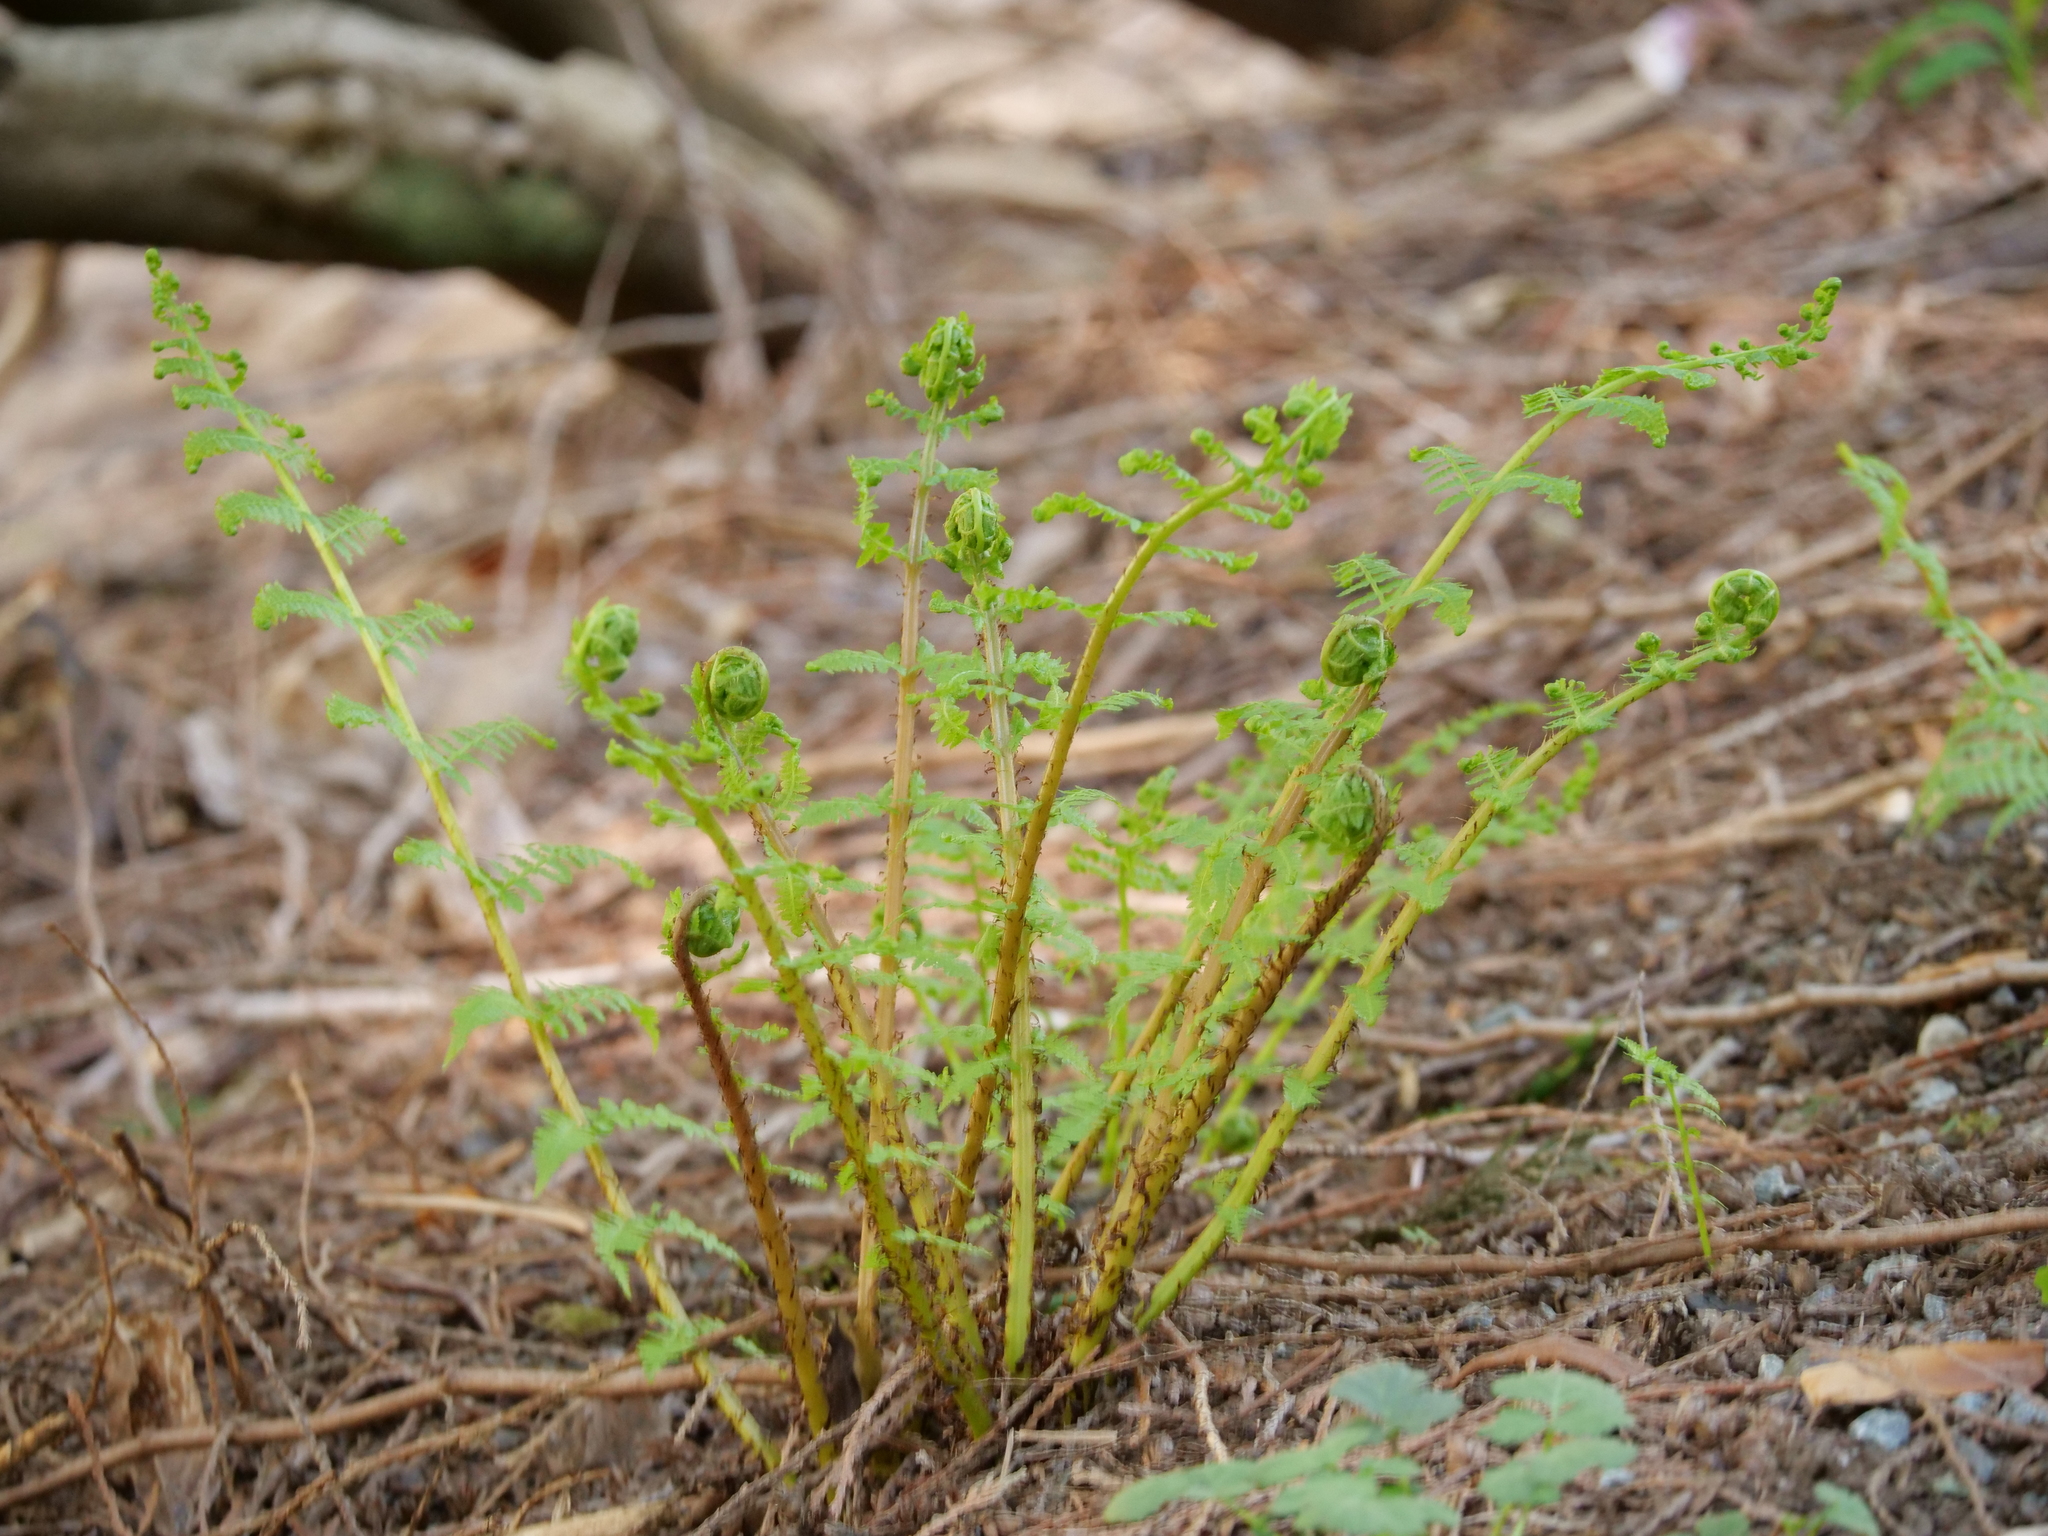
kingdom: Plantae
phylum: Tracheophyta
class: Polypodiopsida
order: Polypodiales
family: Athyriaceae
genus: Athyrium
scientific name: Athyrium filix-femina
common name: Lady fern
